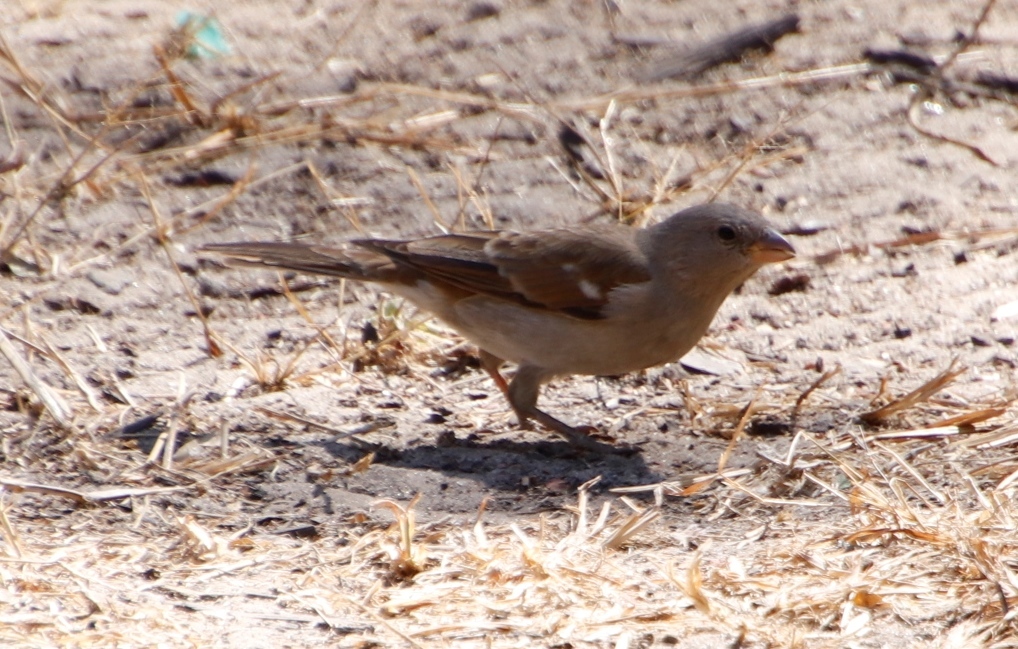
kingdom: Animalia
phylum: Chordata
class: Aves
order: Passeriformes
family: Passeridae
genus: Passer
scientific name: Passer diffusus
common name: Southern grey-headed sparrow
